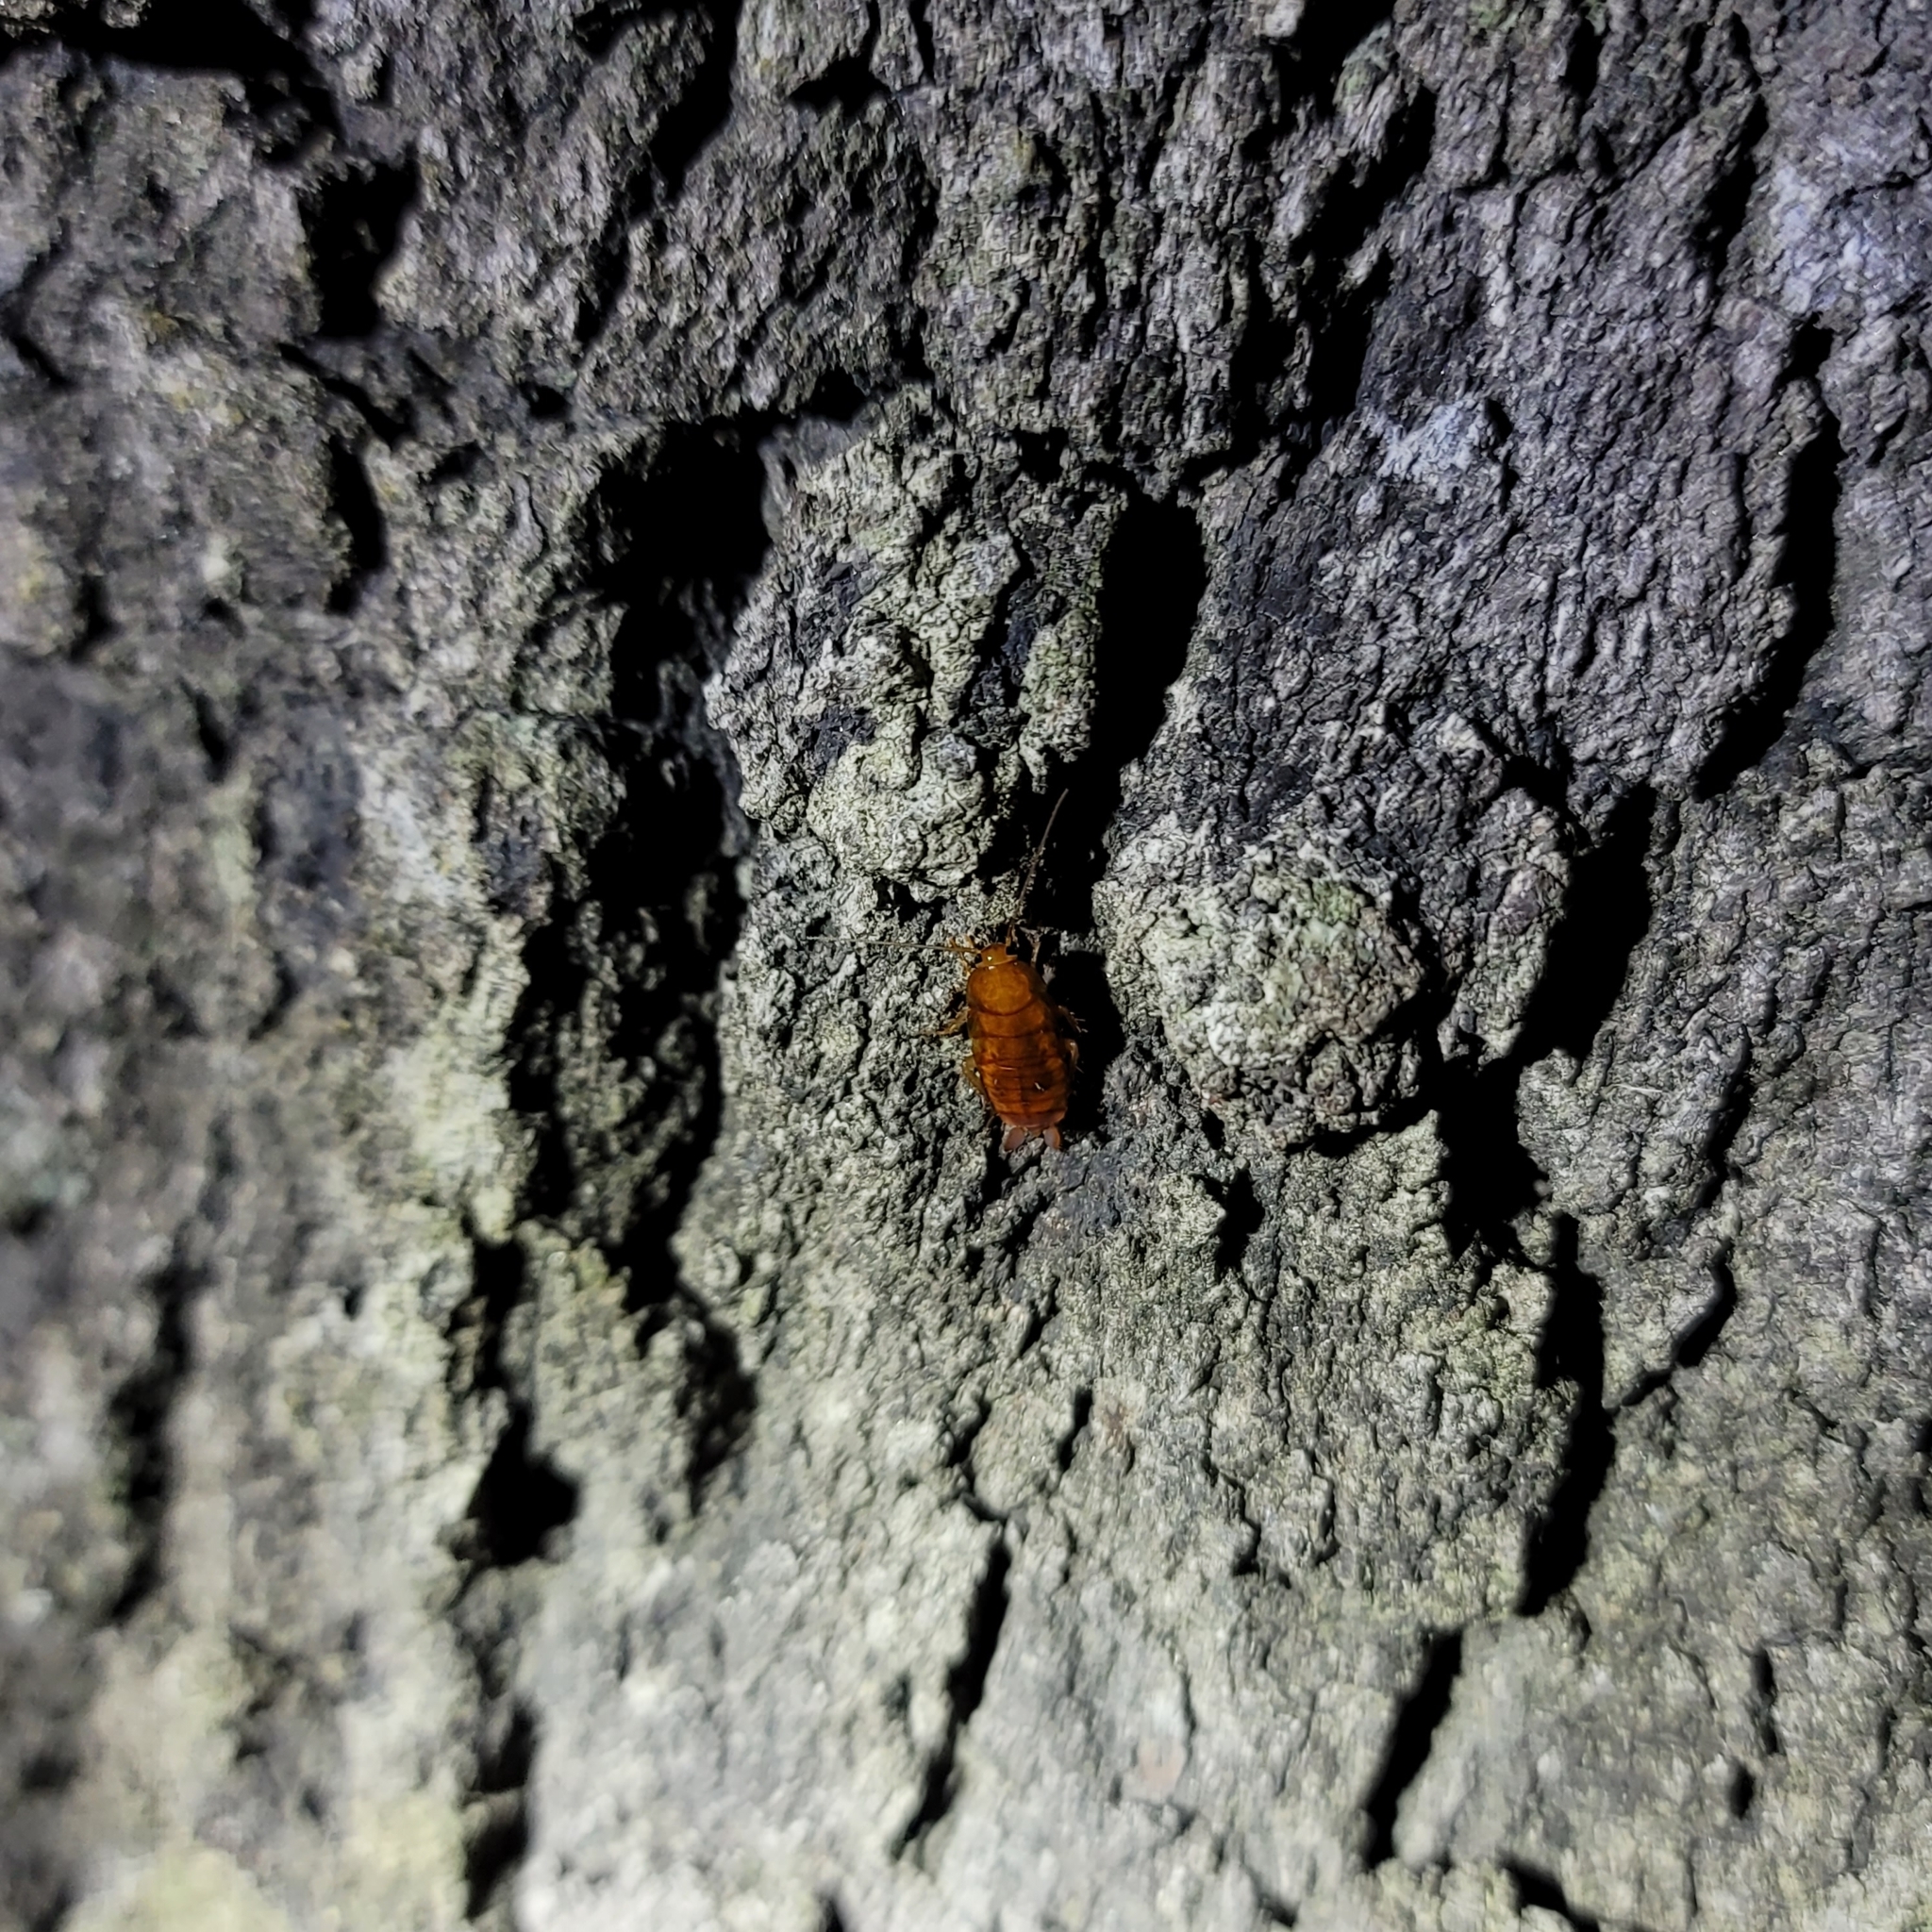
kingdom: Animalia
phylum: Arthropoda
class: Insecta
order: Blattodea
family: Ectobiidae
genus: Parcoblatta
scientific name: Parcoblatta notha
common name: Arizona wood cockroach
